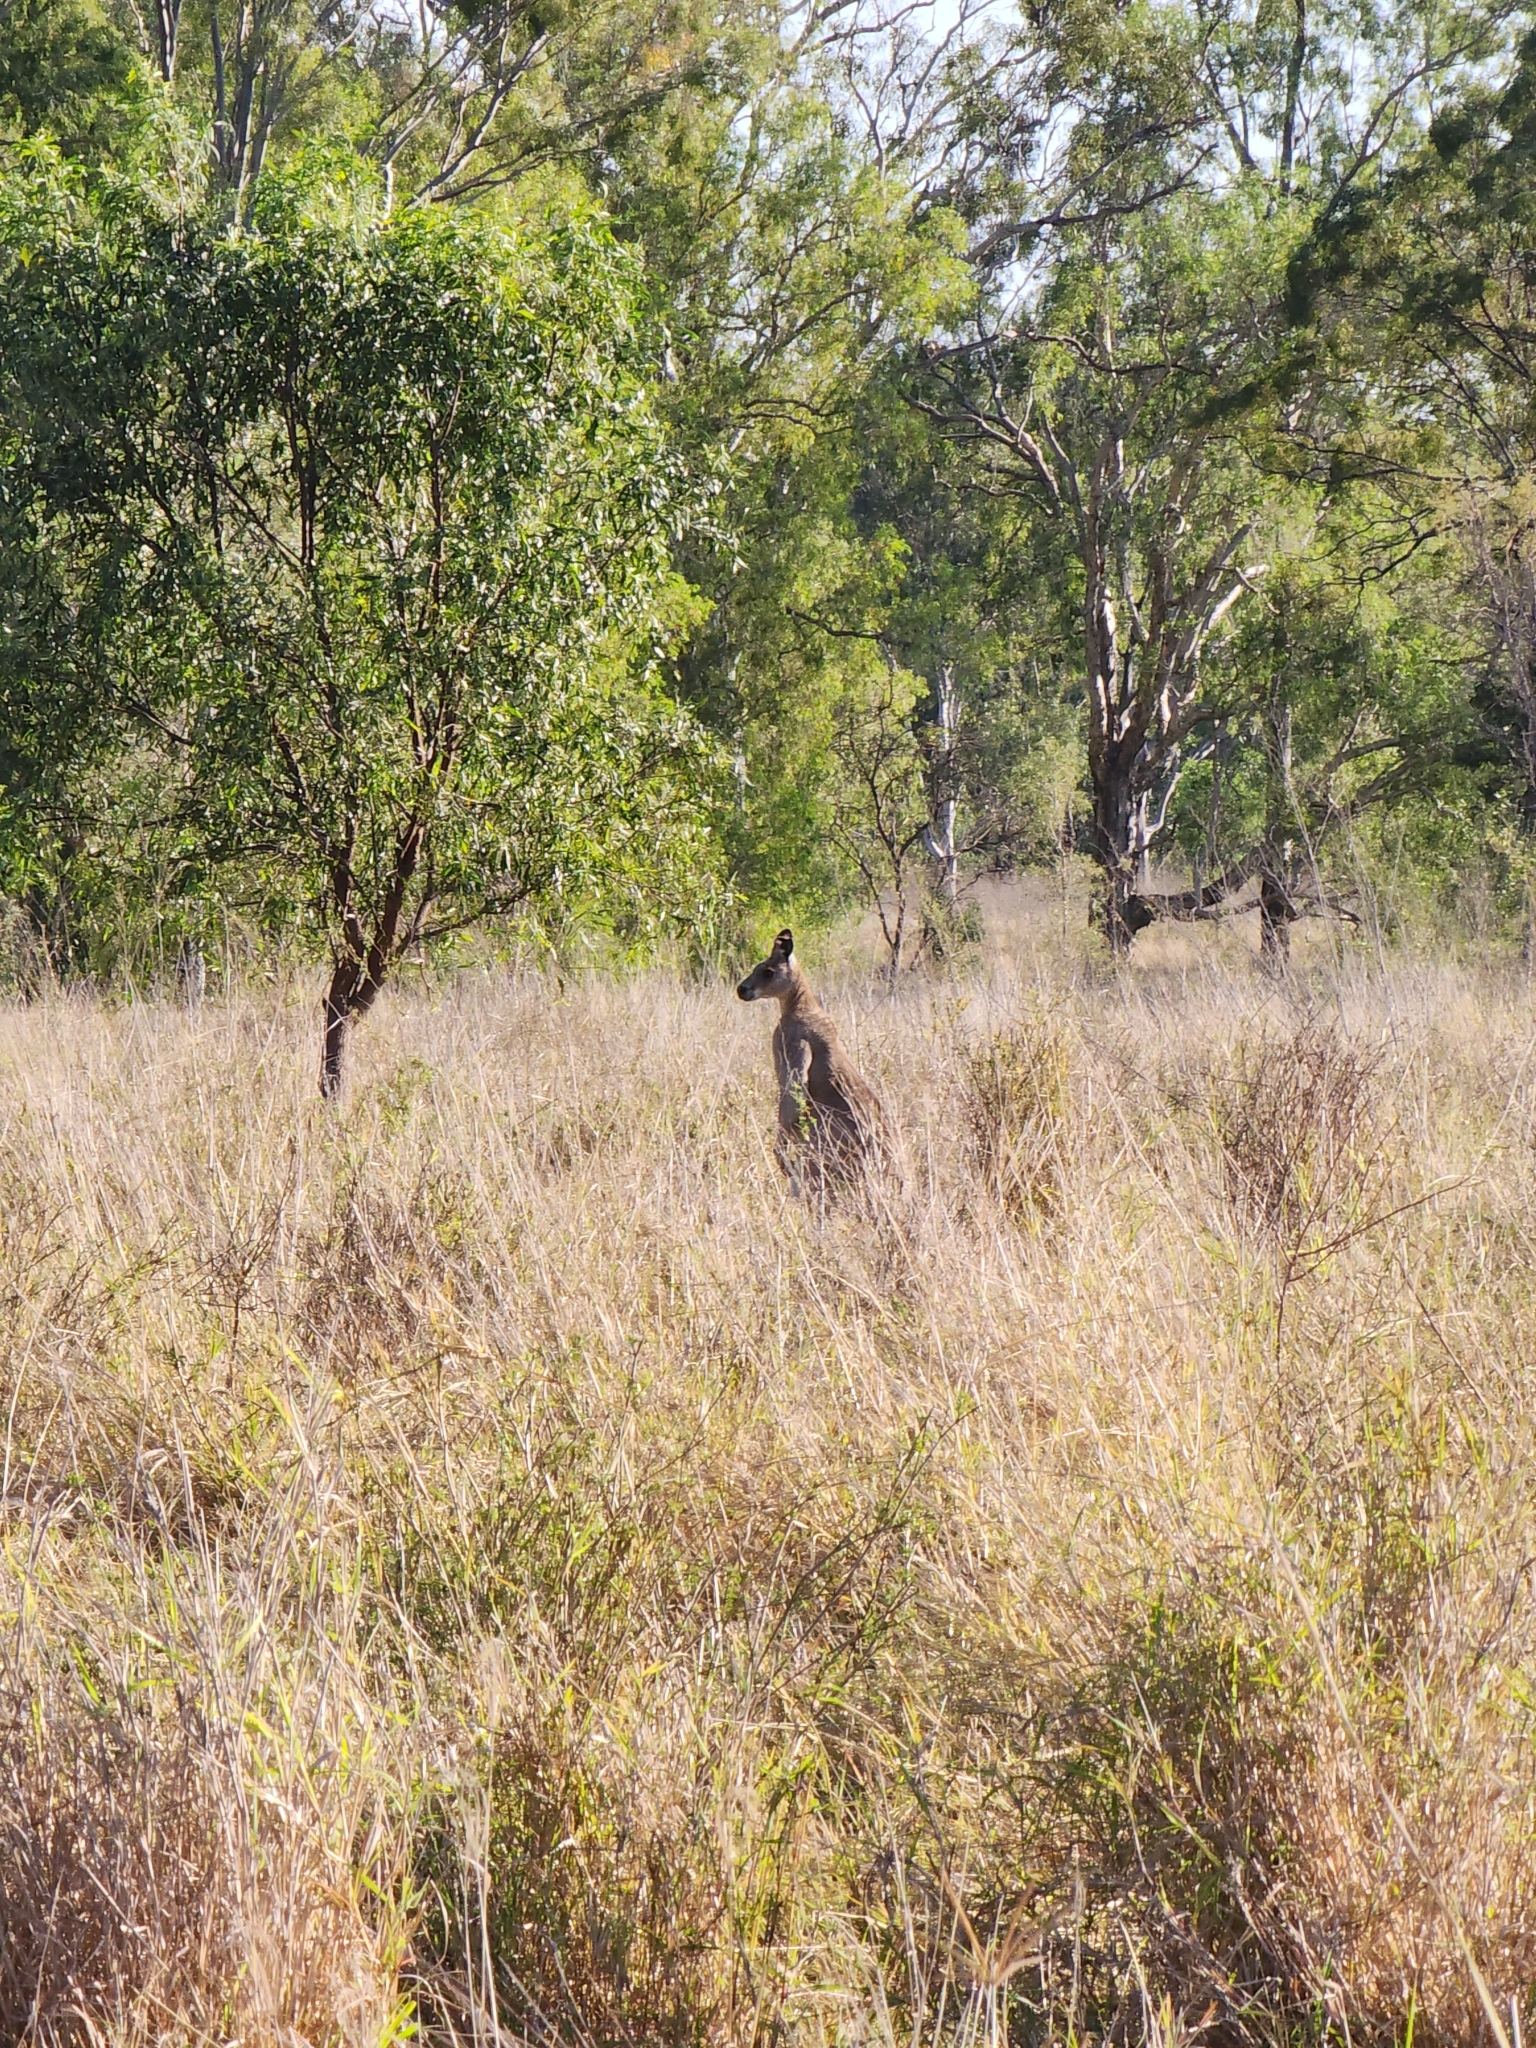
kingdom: Animalia
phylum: Chordata
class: Mammalia
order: Diprotodontia
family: Macropodidae
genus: Macropus
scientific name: Macropus giganteus
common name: Eastern grey kangaroo
